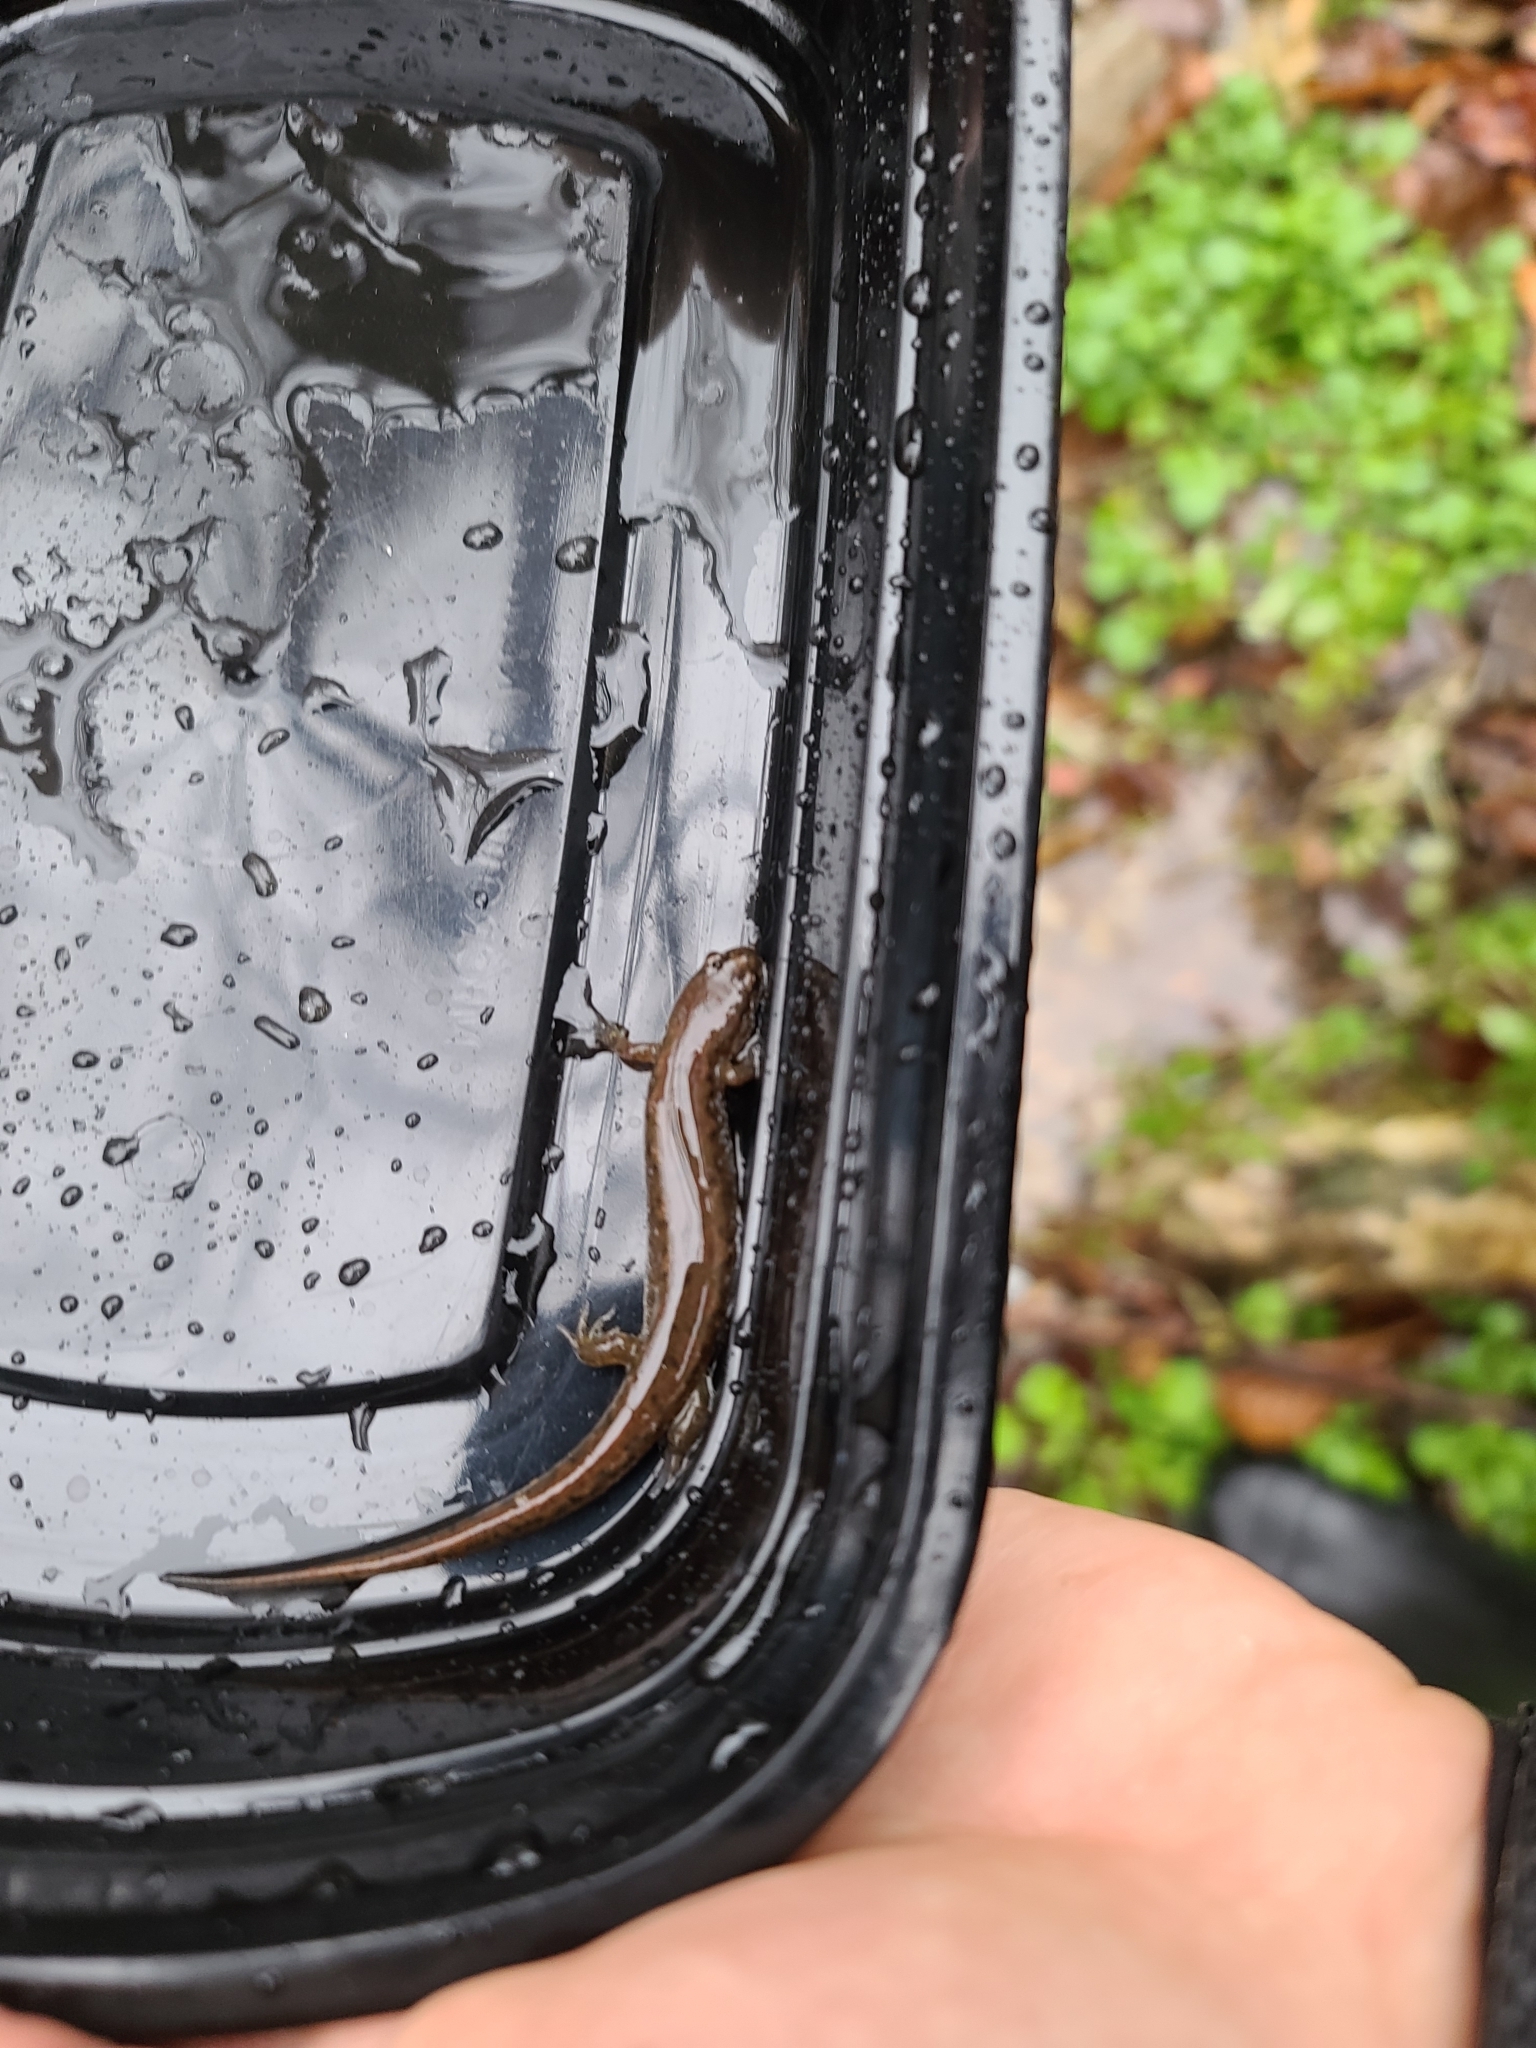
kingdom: Animalia
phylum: Chordata
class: Amphibia
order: Caudata
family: Plethodontidae
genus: Desmognathus
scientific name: Desmognathus fuscus
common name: Northern dusky salamander
